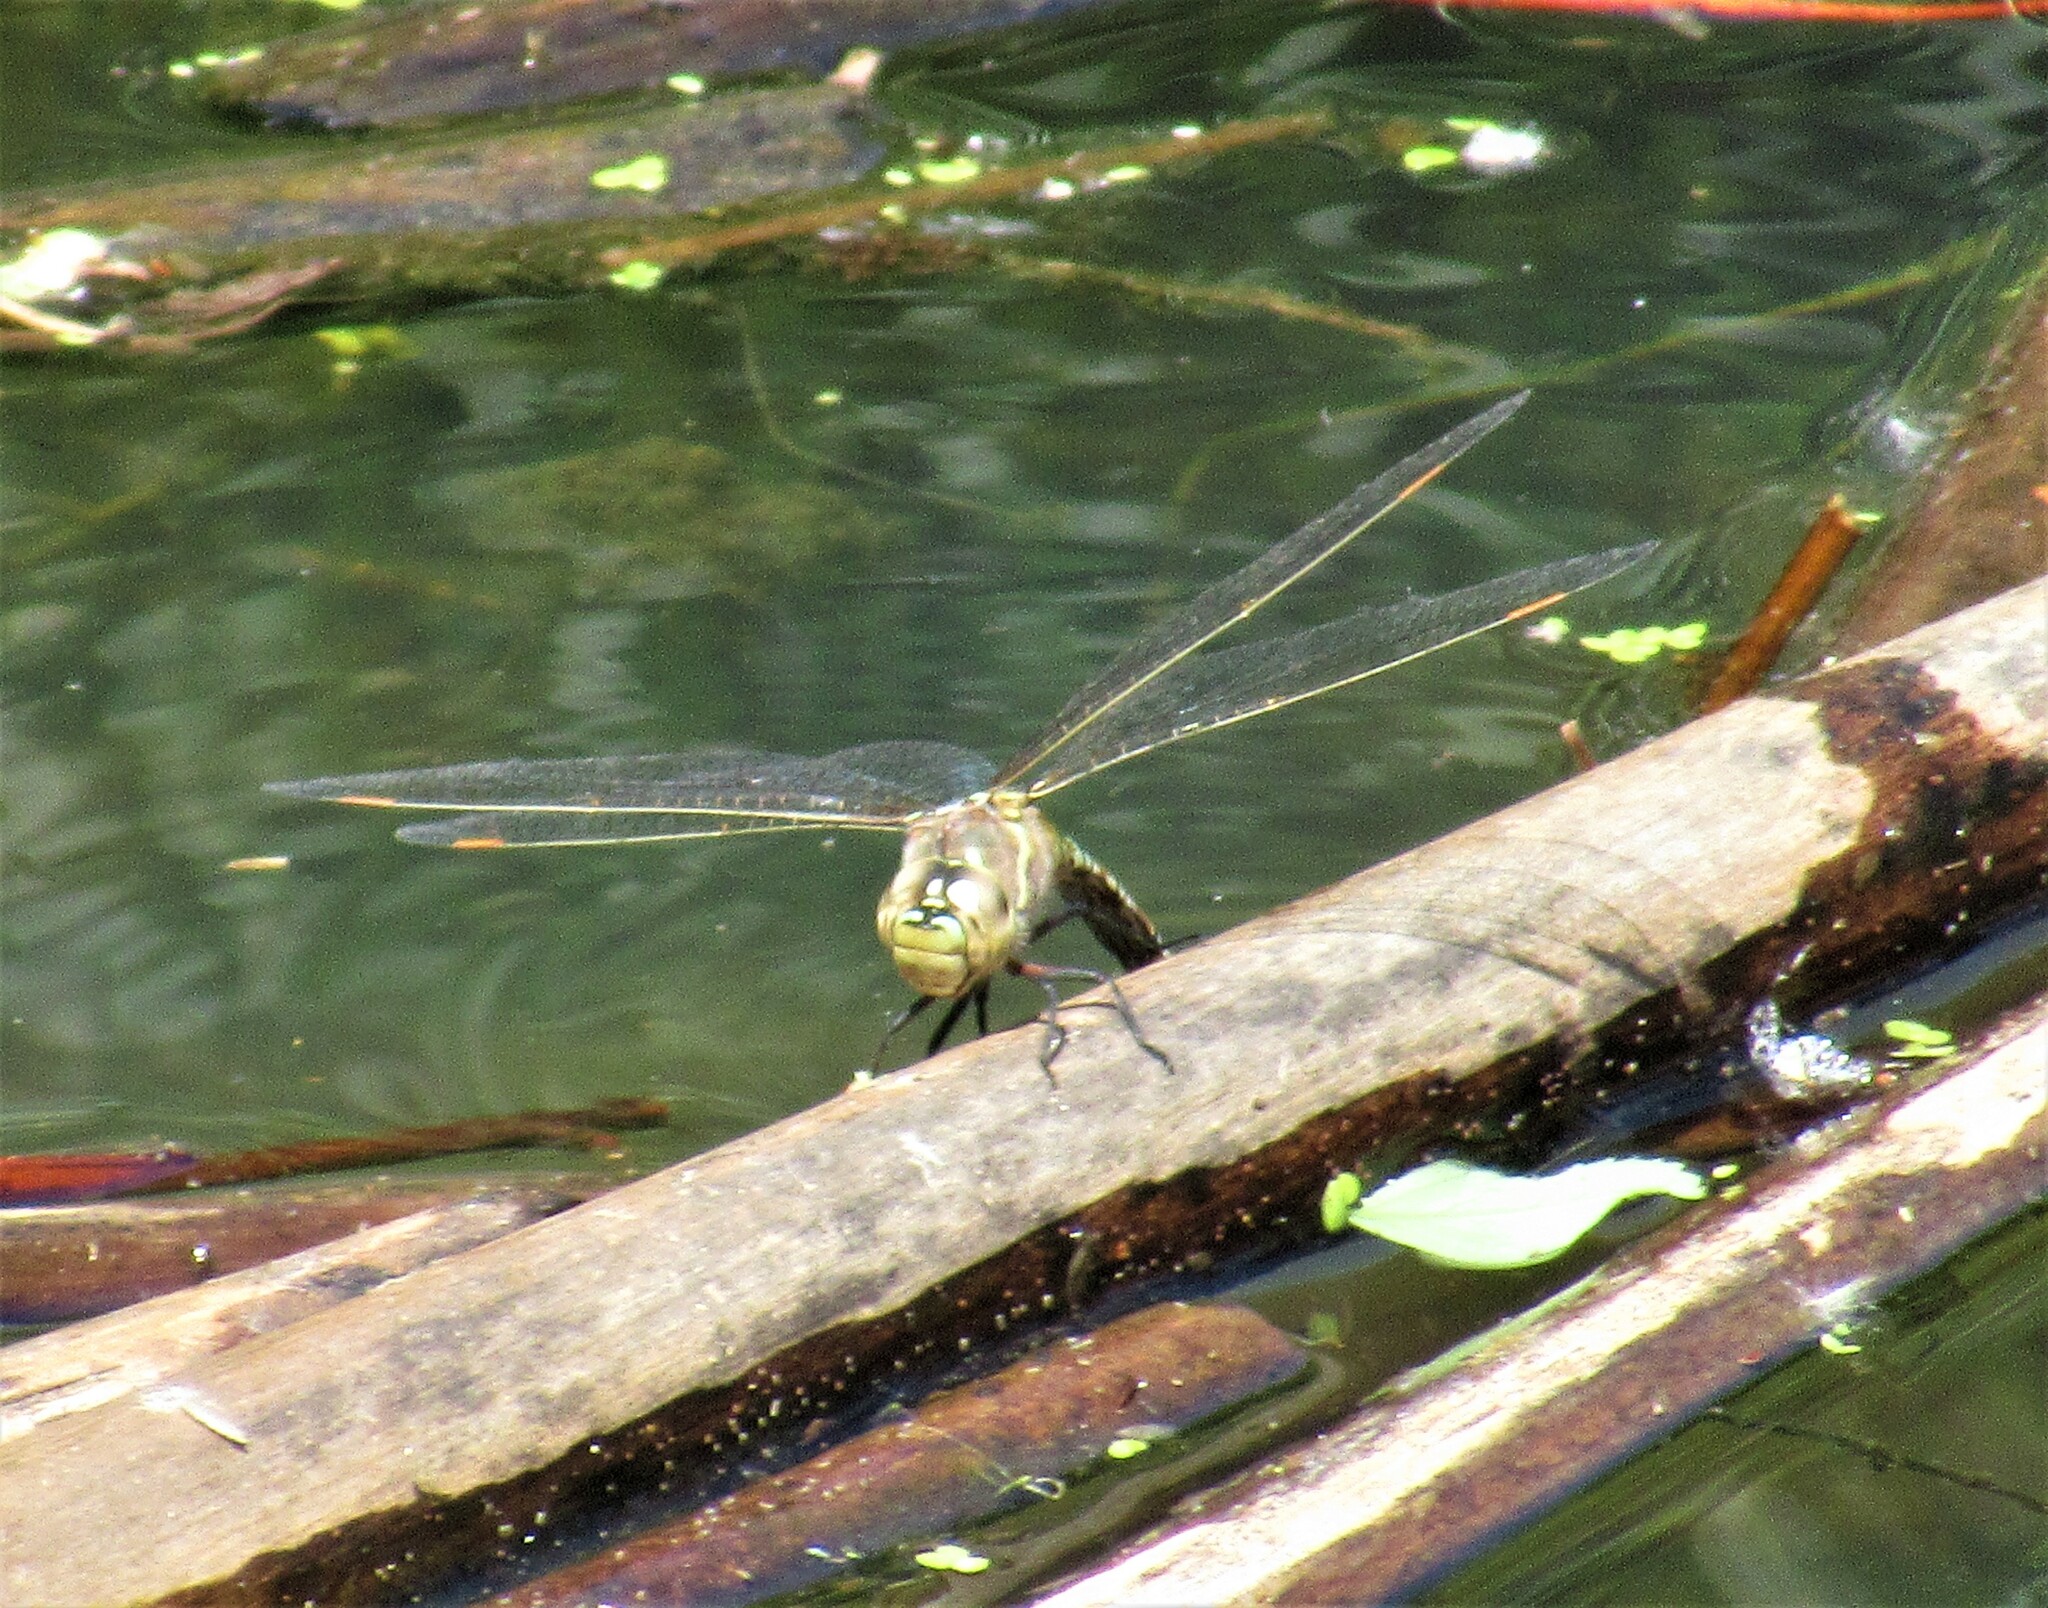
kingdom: Animalia
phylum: Arthropoda
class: Insecta
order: Odonata
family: Aeshnidae
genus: Rhionaeschna
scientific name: Rhionaeschna multicolor
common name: Blue-eyed darner
